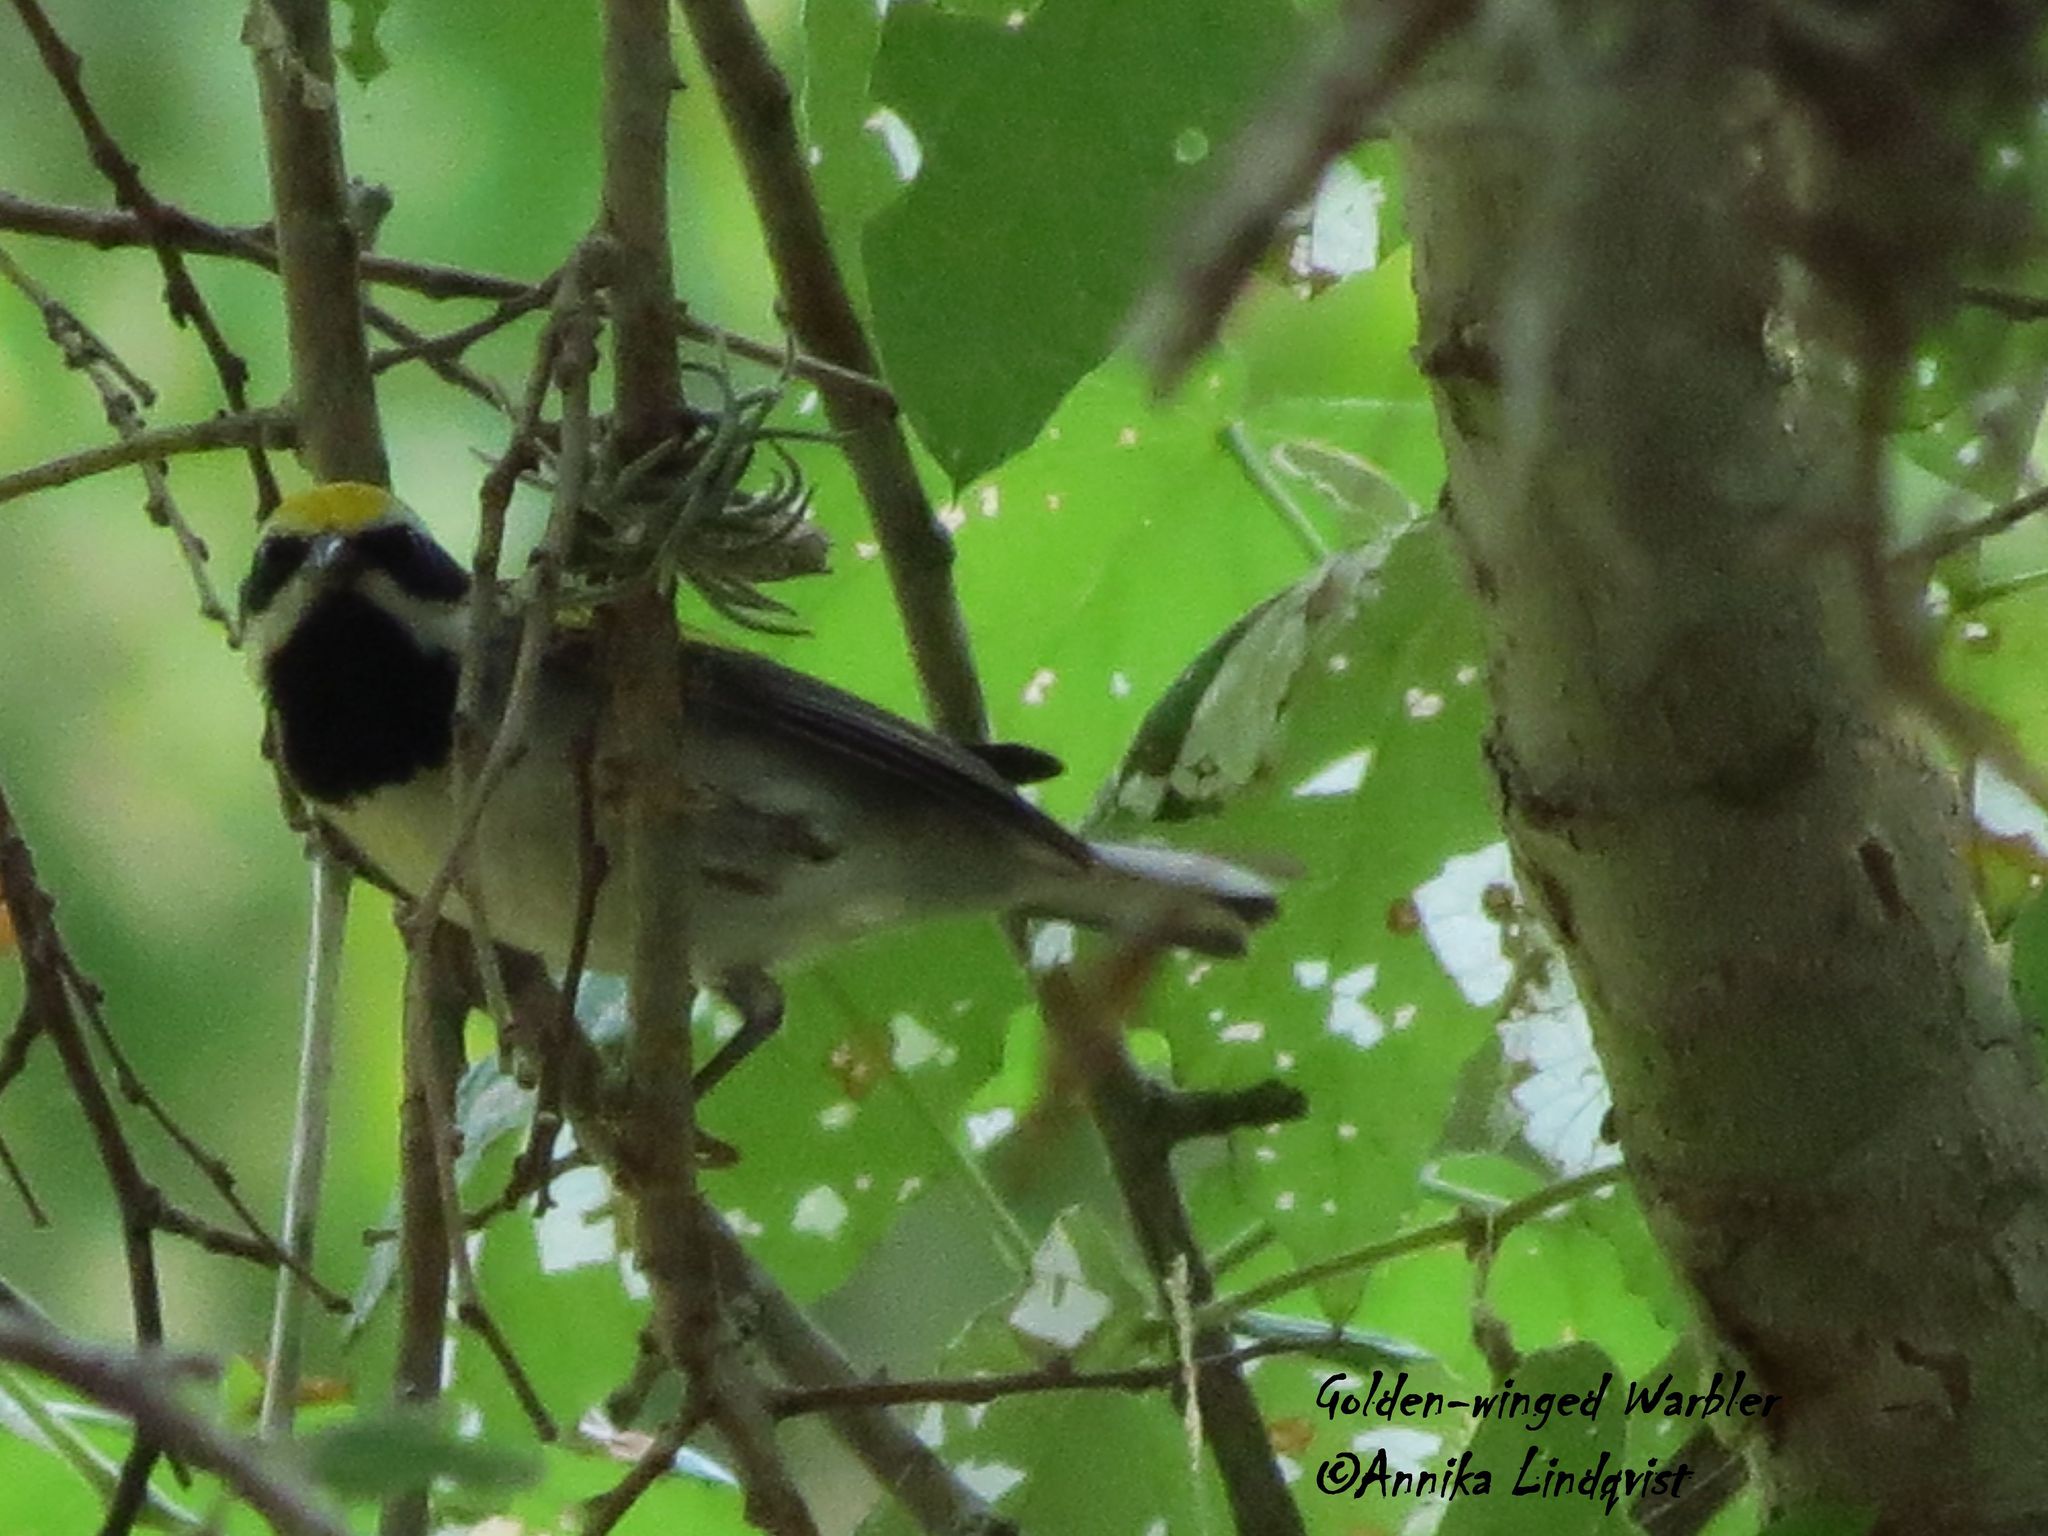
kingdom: Animalia
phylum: Chordata
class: Aves
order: Passeriformes
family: Parulidae
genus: Vermivora
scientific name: Vermivora chrysoptera
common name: Golden-winged warbler
